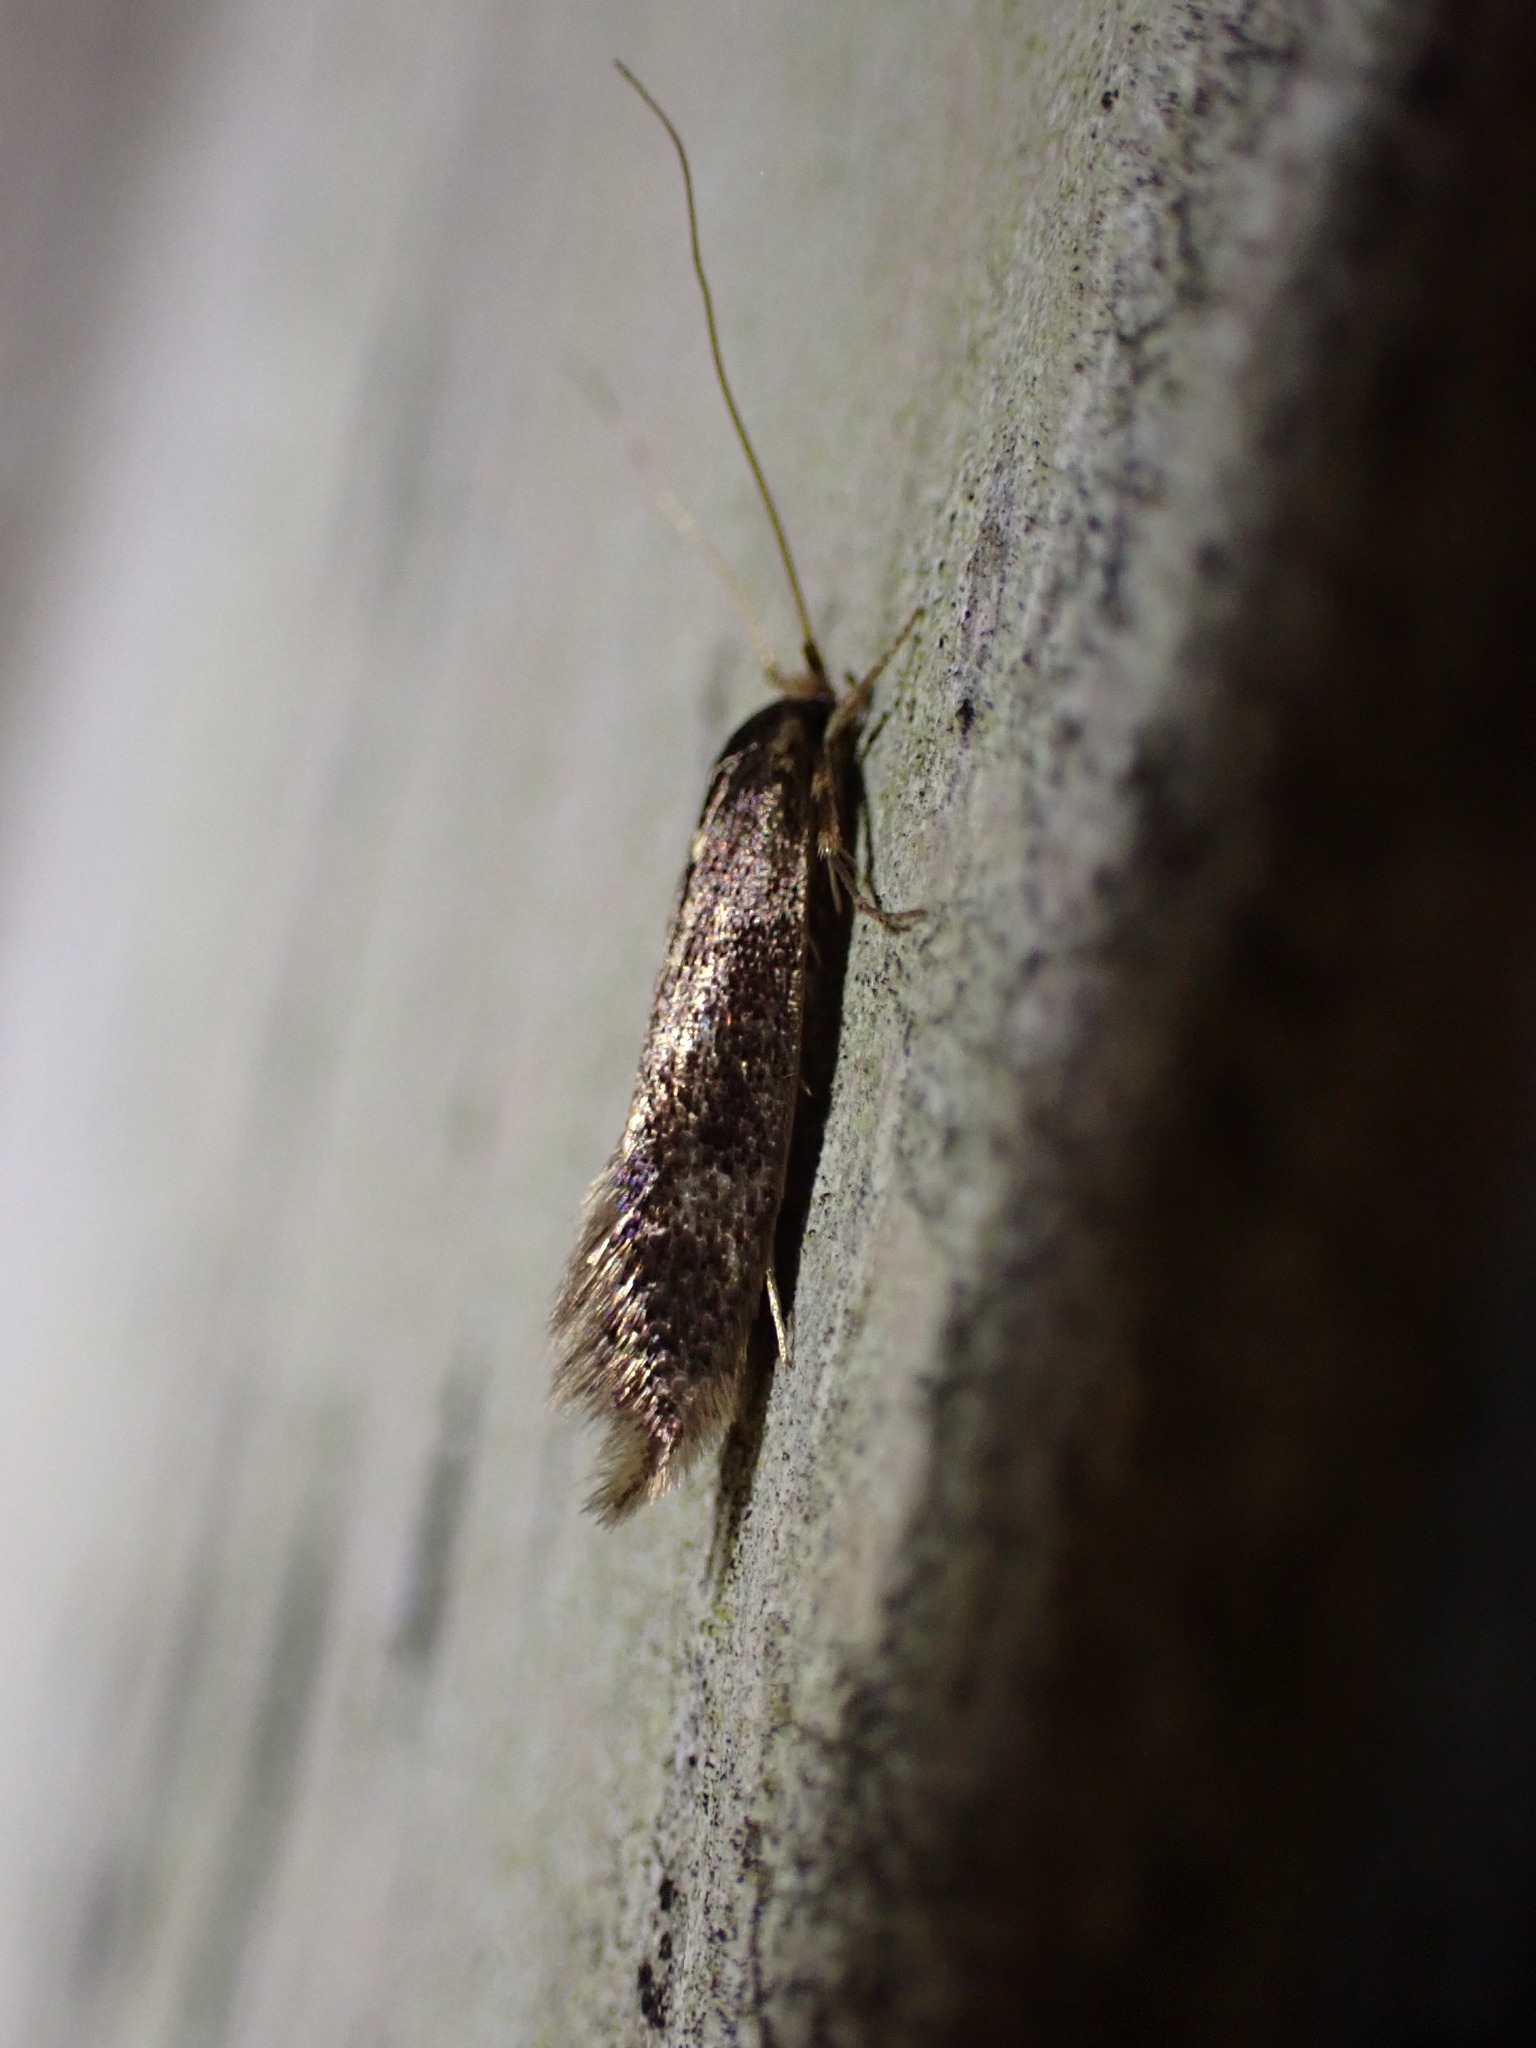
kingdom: Animalia
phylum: Arthropoda
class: Insecta
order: Lepidoptera
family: Tineidae
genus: Opogona
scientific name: Opogona omoscopa
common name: Moth
